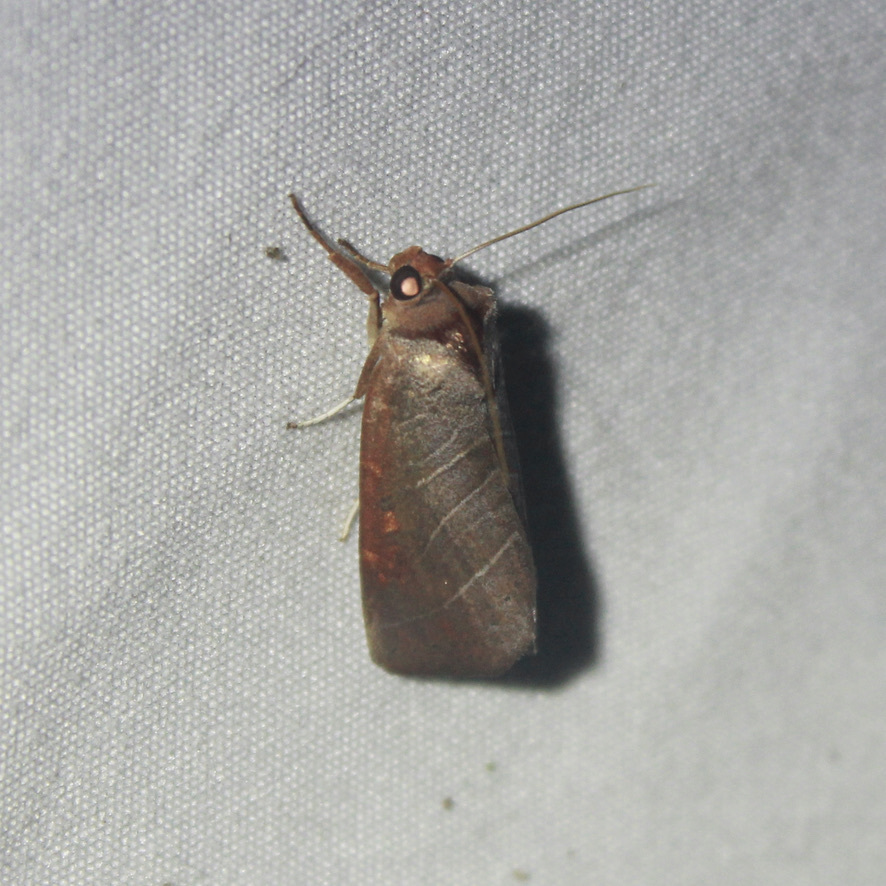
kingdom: Animalia
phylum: Arthropoda
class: Insecta
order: Lepidoptera
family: Notodontidae
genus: Marthula
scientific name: Marthula multifascia
